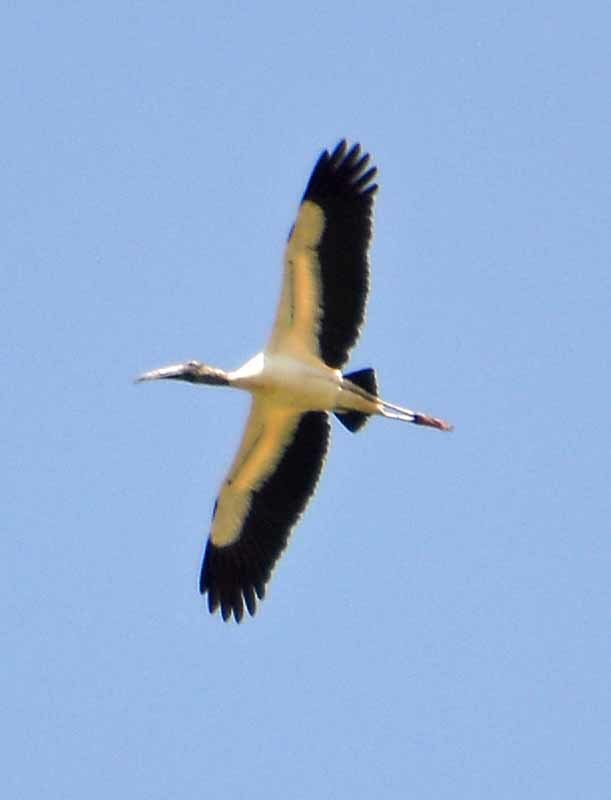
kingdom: Animalia
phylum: Chordata
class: Aves
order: Ciconiiformes
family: Ciconiidae
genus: Mycteria
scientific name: Mycteria americana
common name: Wood stork
